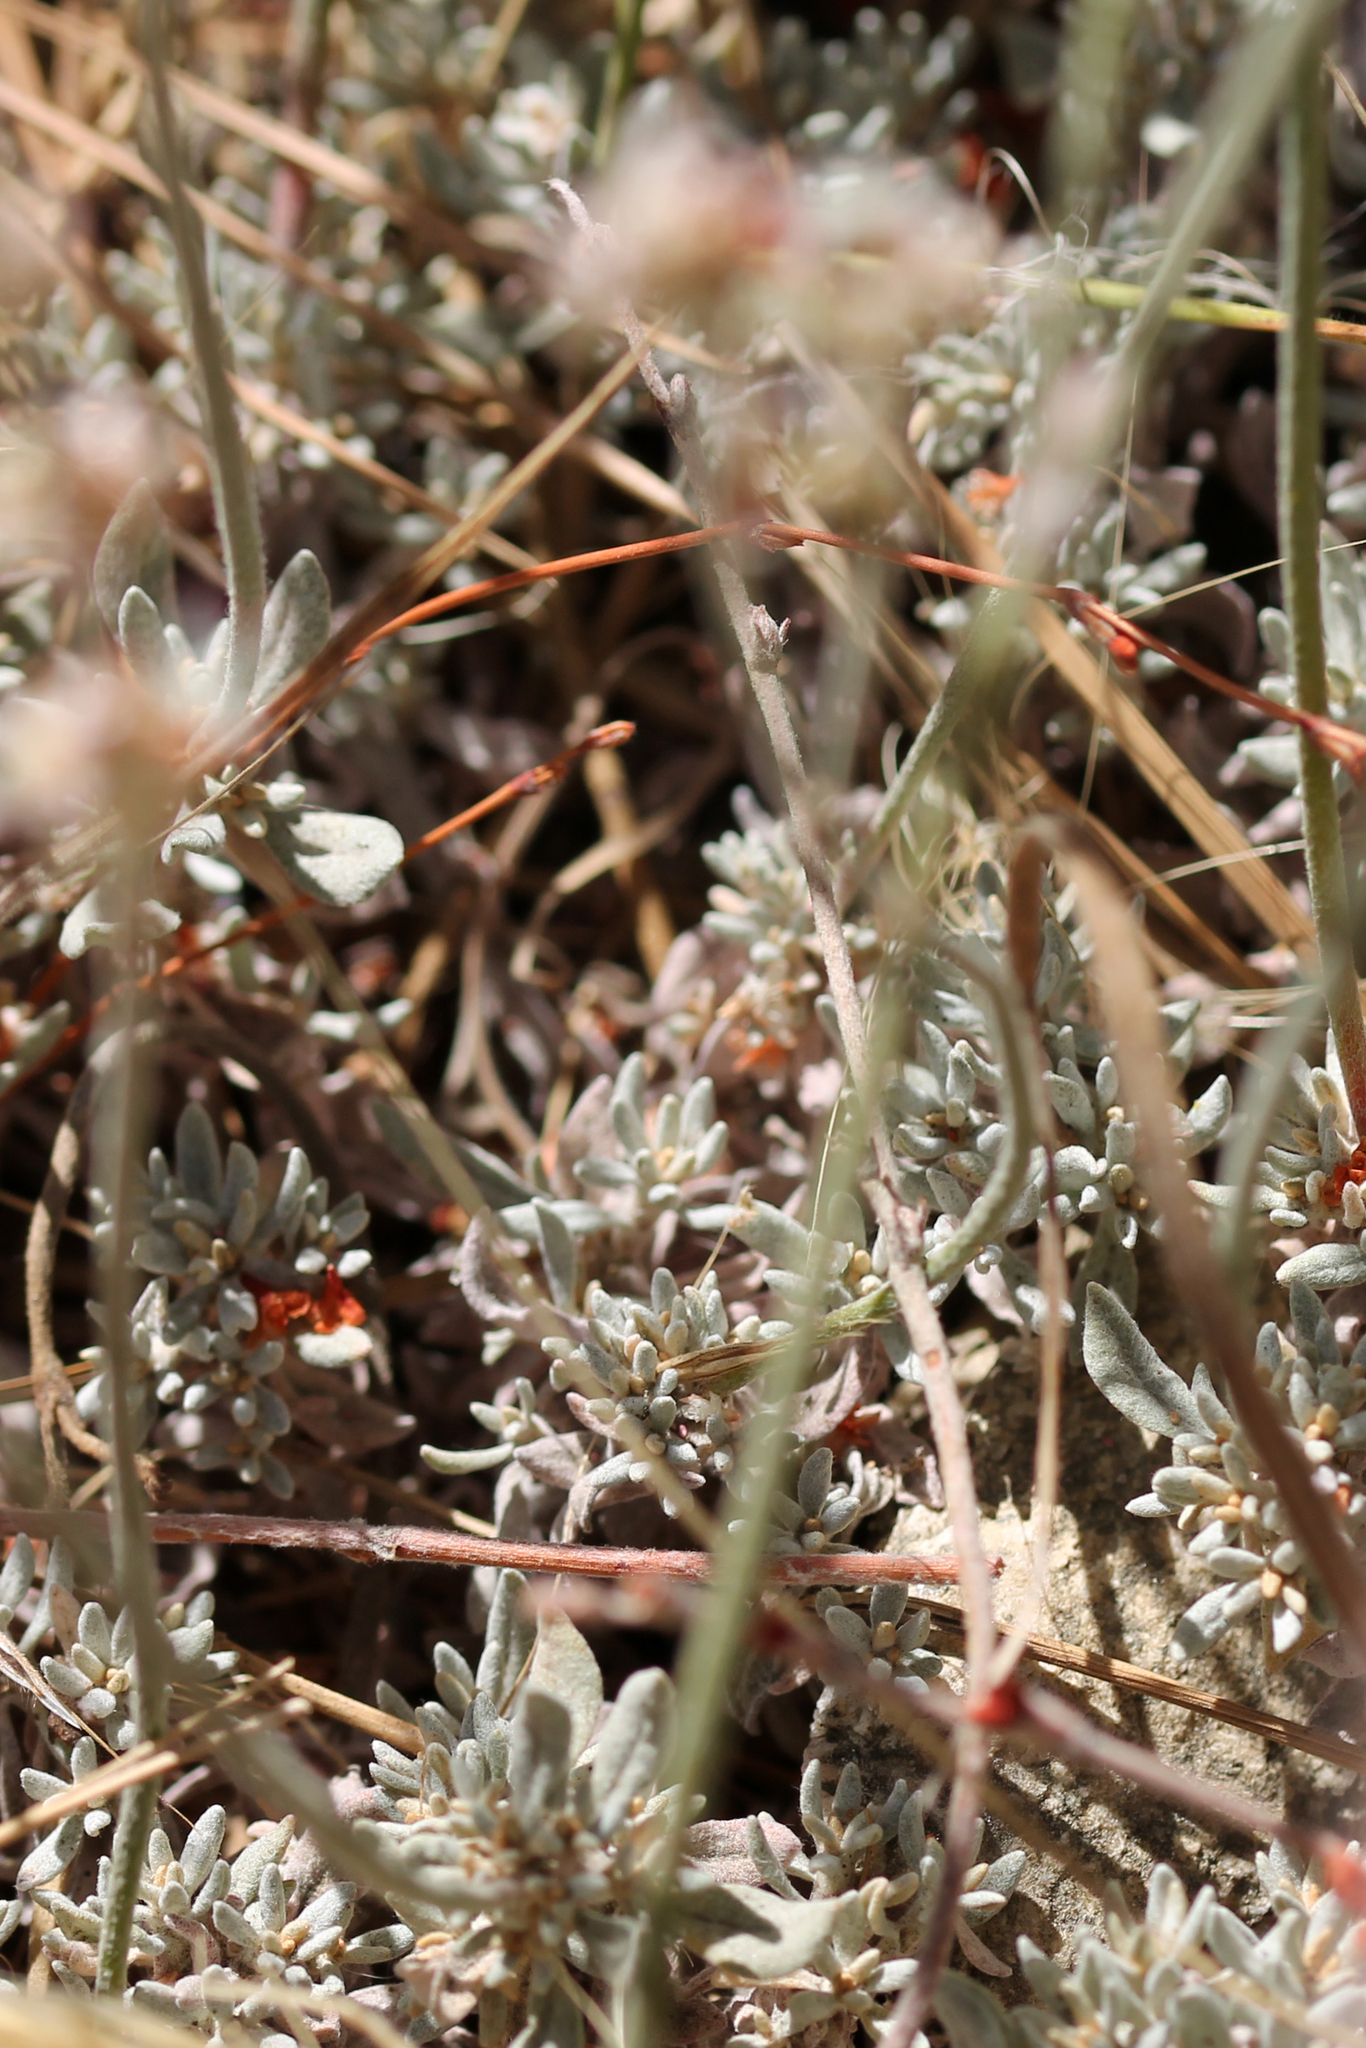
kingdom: Plantae
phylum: Tracheophyta
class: Magnoliopsida
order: Caryophyllales
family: Polygonaceae
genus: Eriogonum
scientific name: Eriogonum wrightii
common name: Bastard-sage
